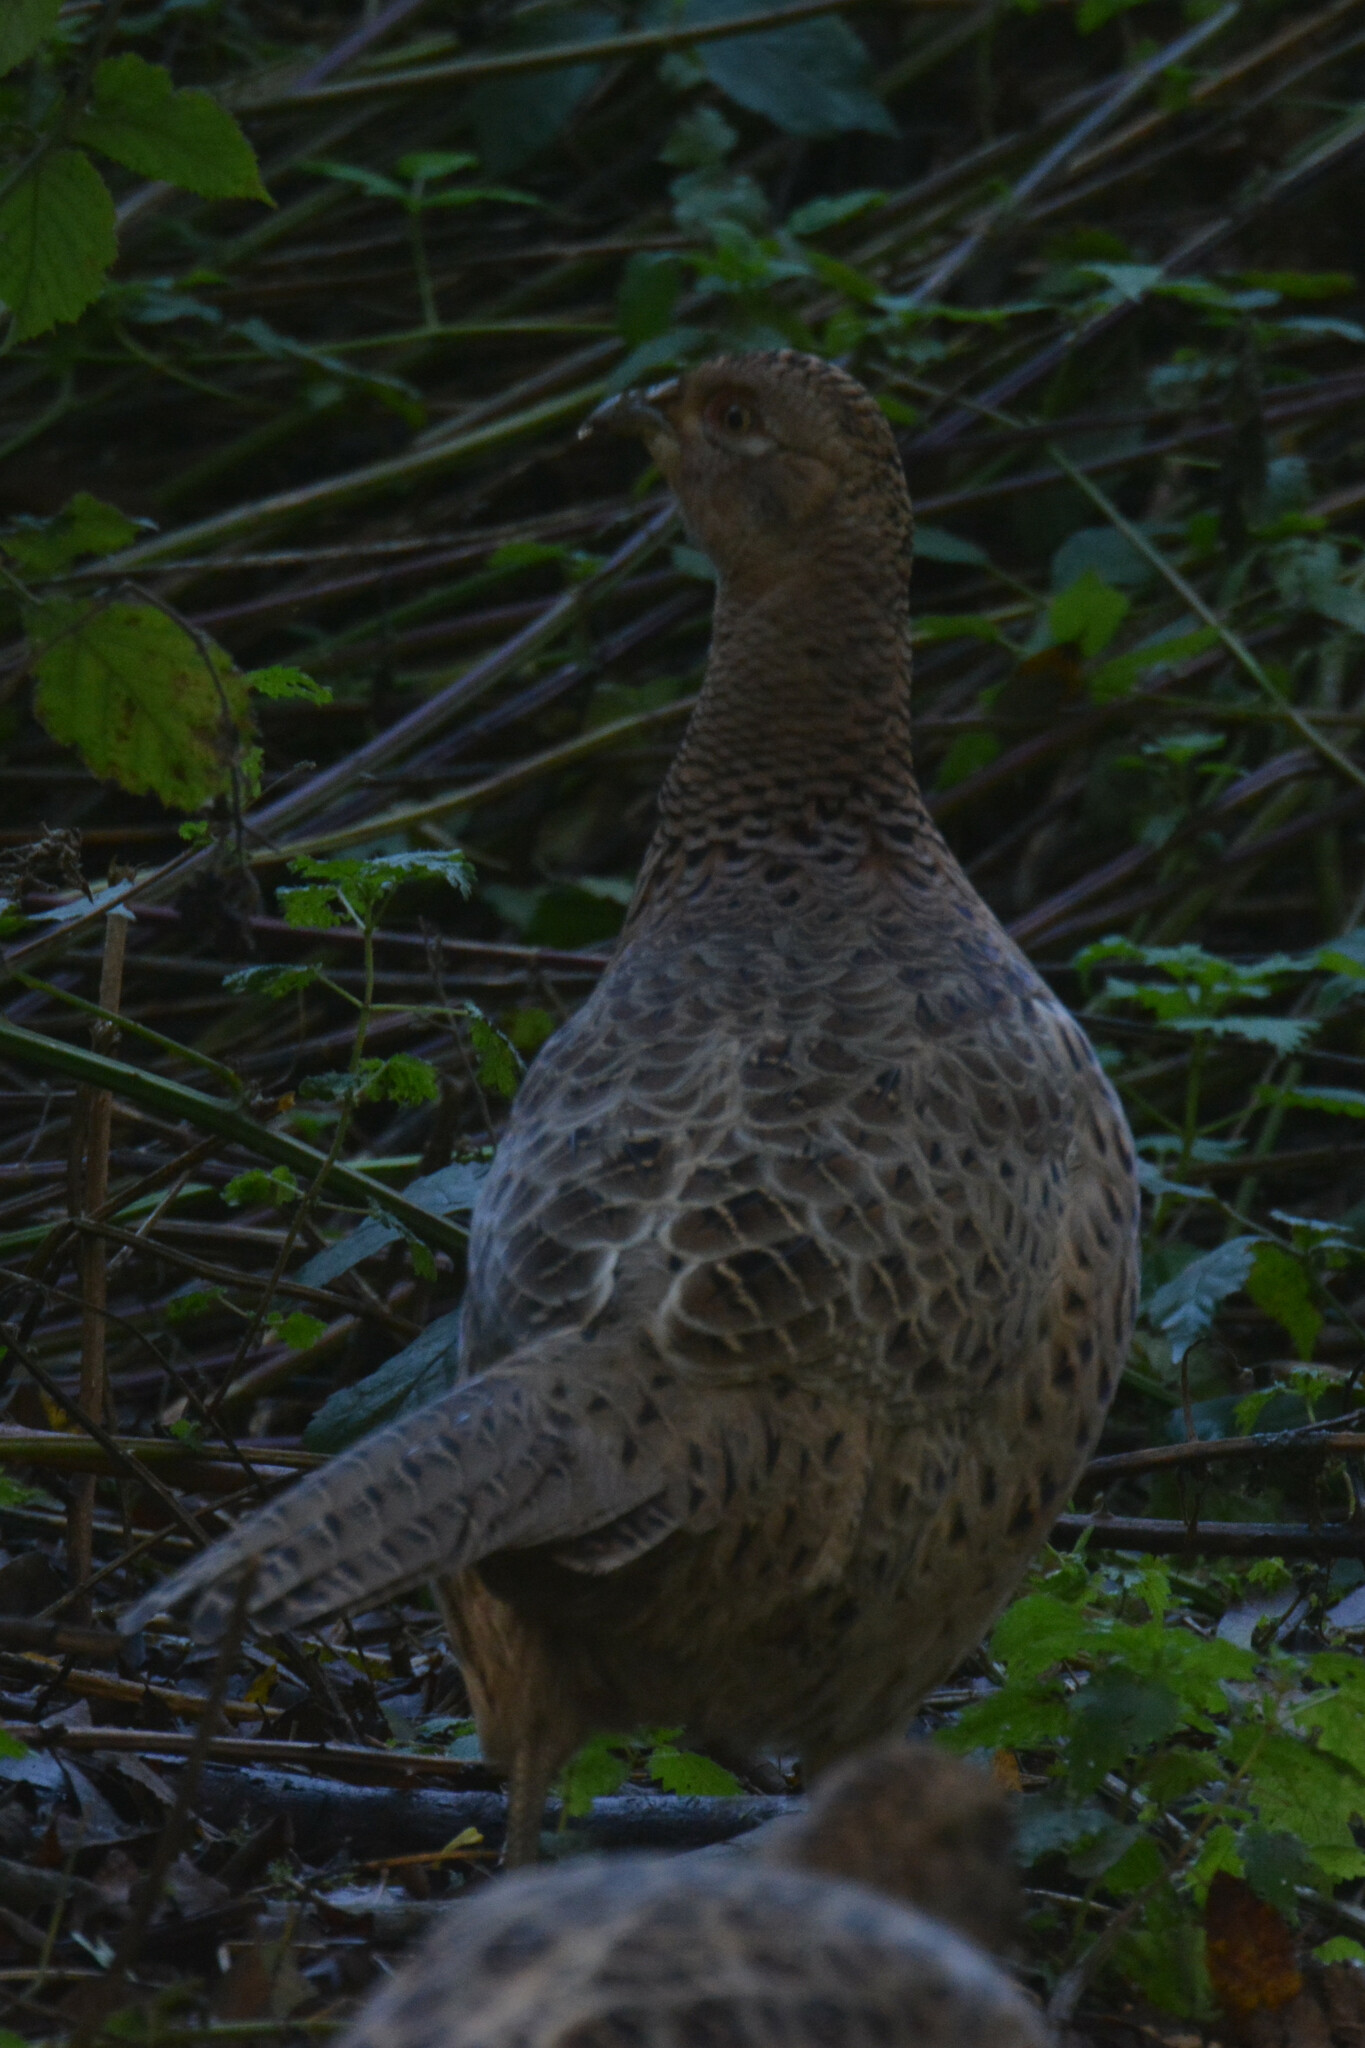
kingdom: Animalia
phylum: Chordata
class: Aves
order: Galliformes
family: Phasianidae
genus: Phasianus
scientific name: Phasianus colchicus
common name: Common pheasant
